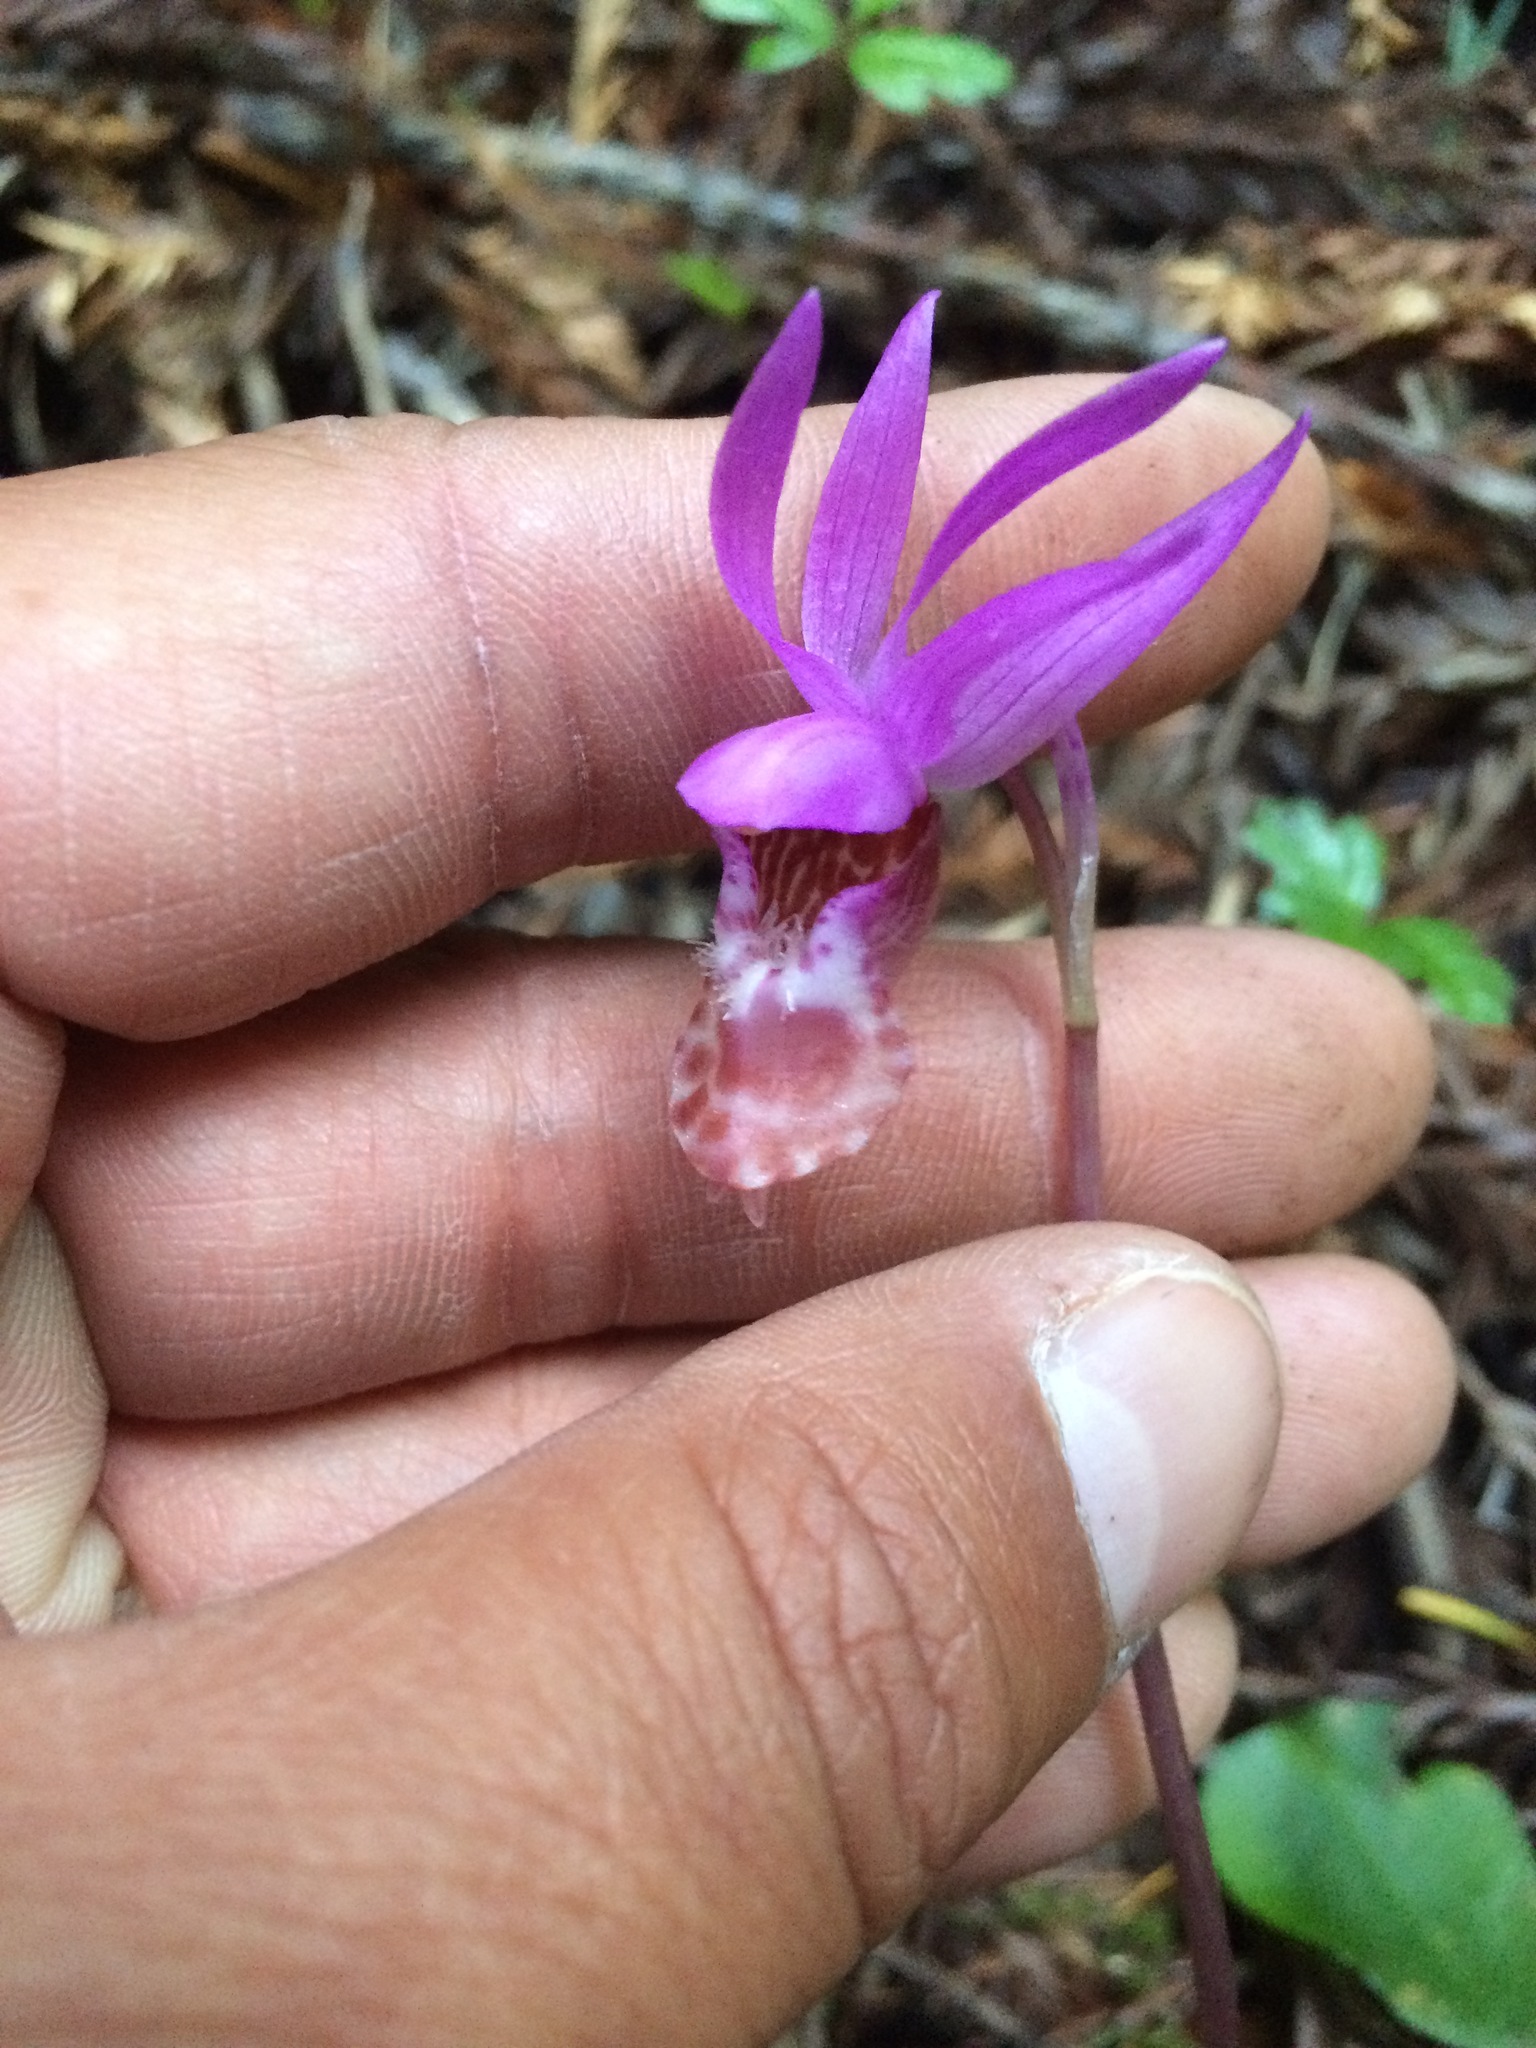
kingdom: Plantae
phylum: Tracheophyta
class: Liliopsida
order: Asparagales
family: Orchidaceae
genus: Calypso
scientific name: Calypso bulbosa
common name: Calypso
